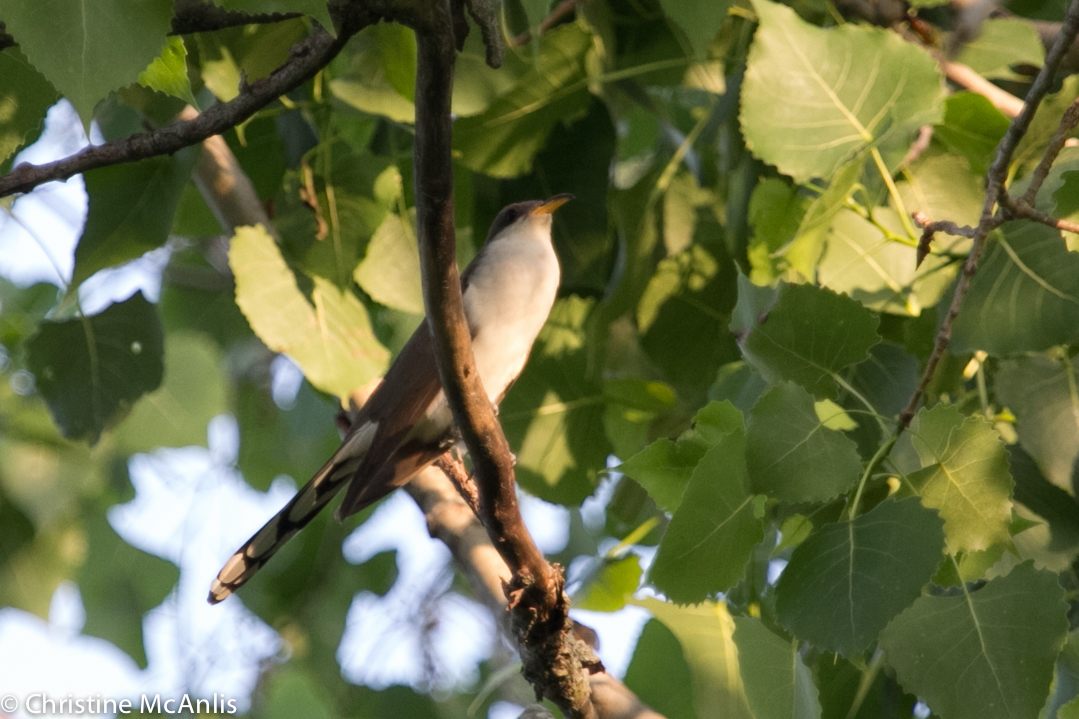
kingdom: Animalia
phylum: Chordata
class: Aves
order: Cuculiformes
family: Cuculidae
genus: Coccyzus
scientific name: Coccyzus americanus
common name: Yellow-billed cuckoo
